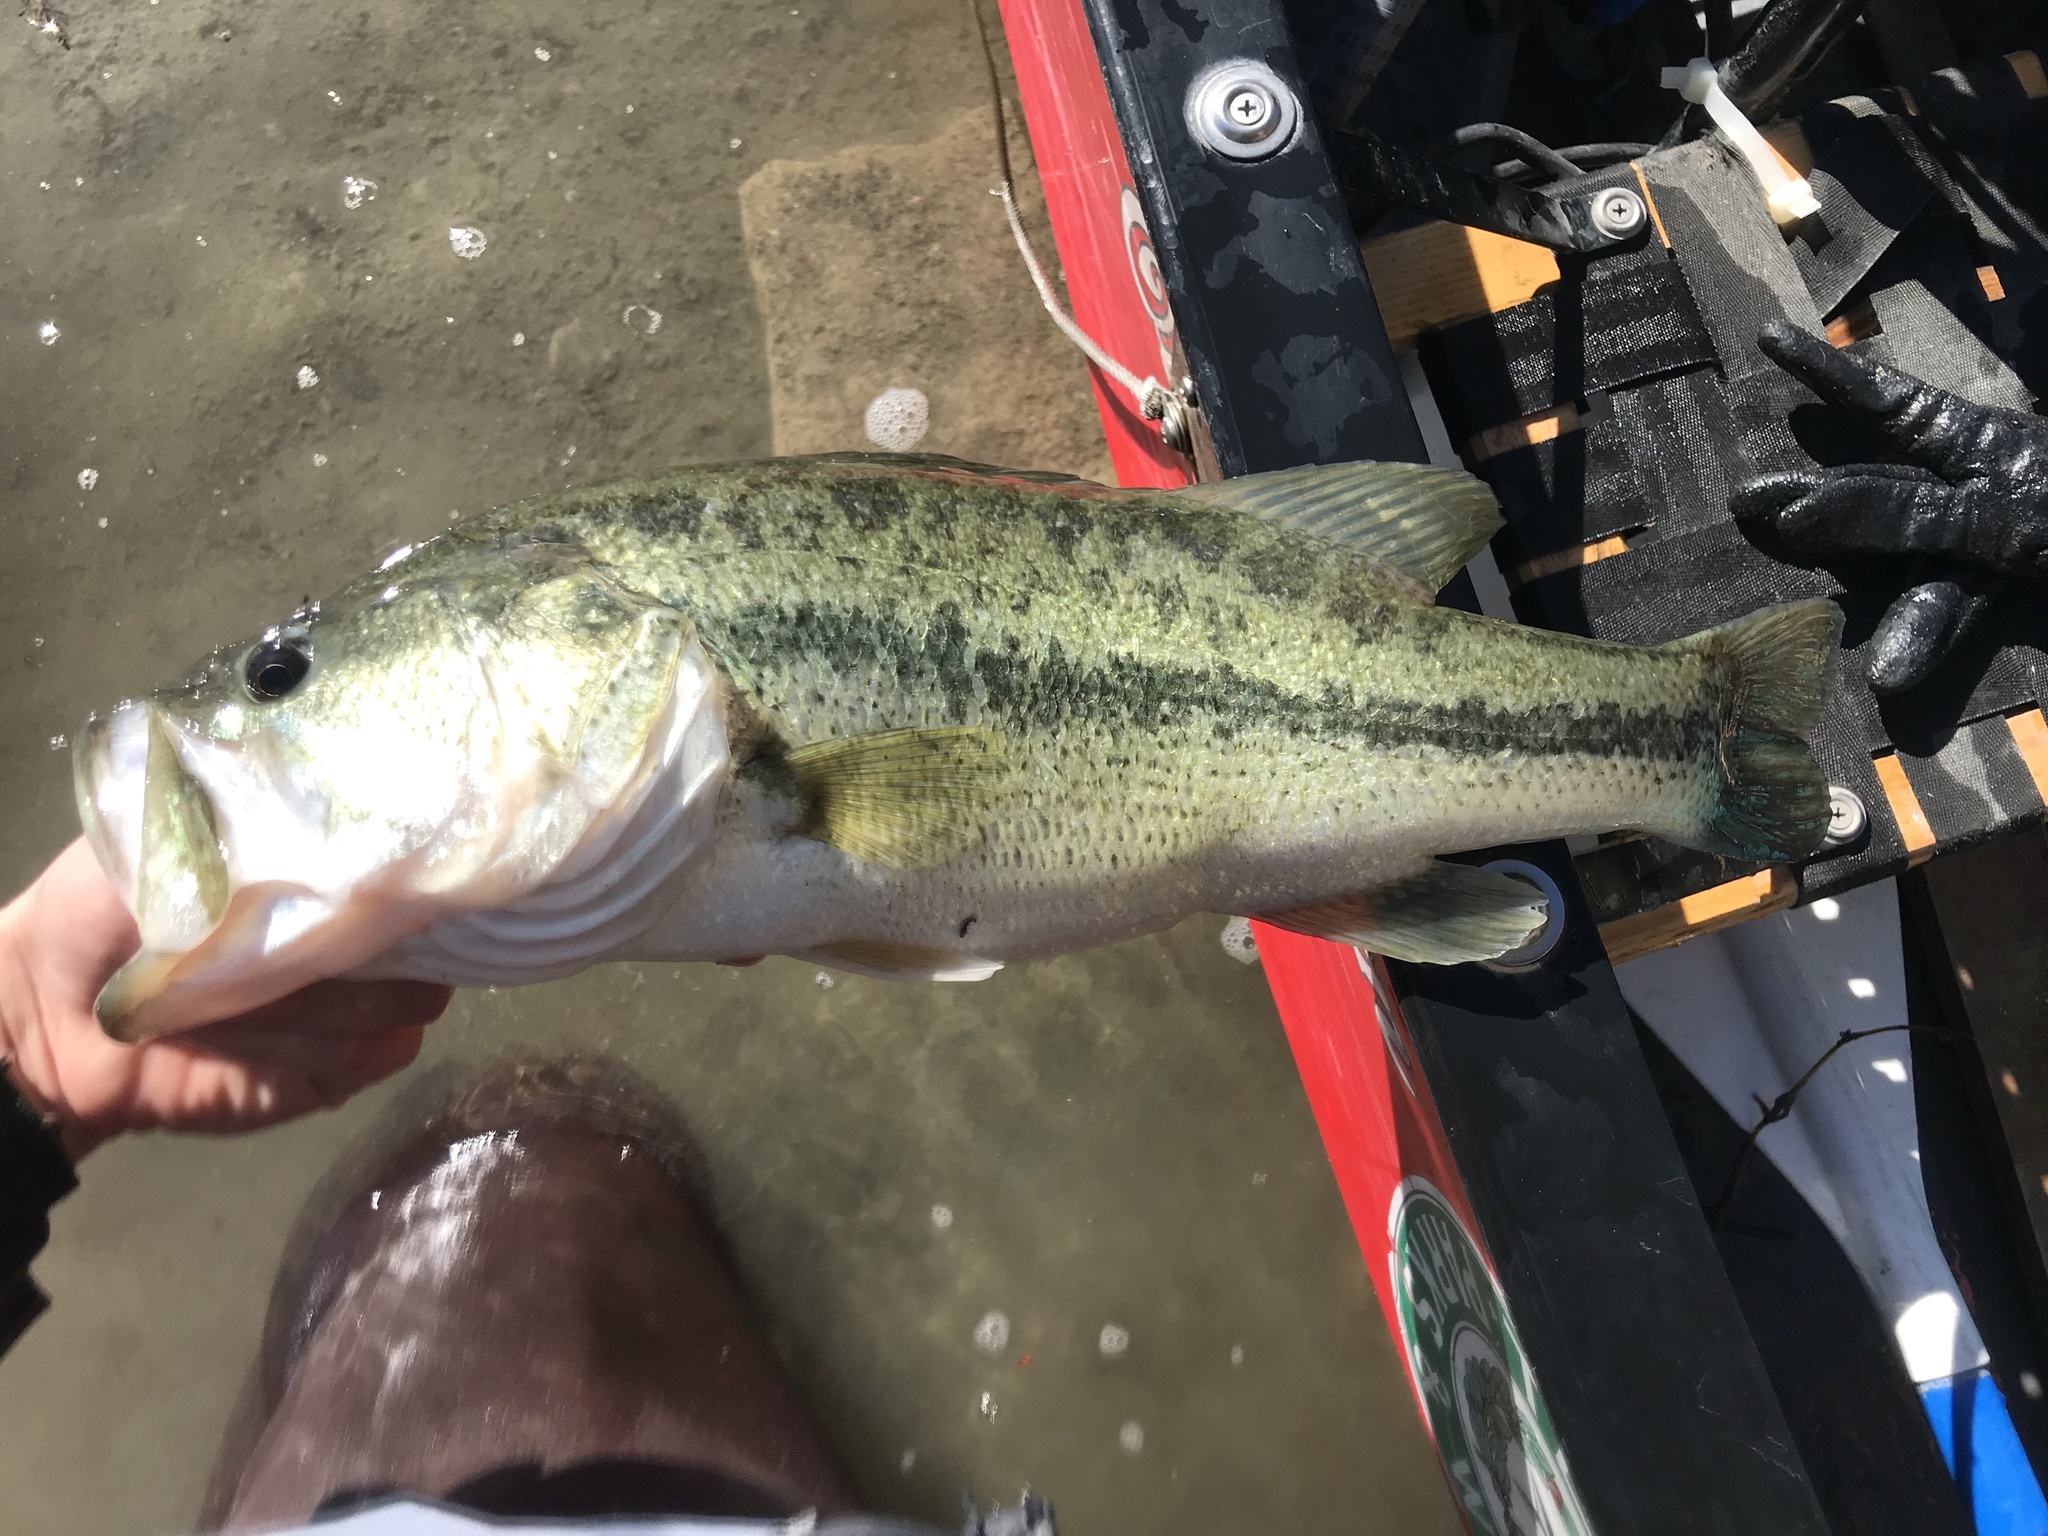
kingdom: Animalia
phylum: Chordata
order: Perciformes
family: Centrarchidae
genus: Micropterus
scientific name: Micropterus
